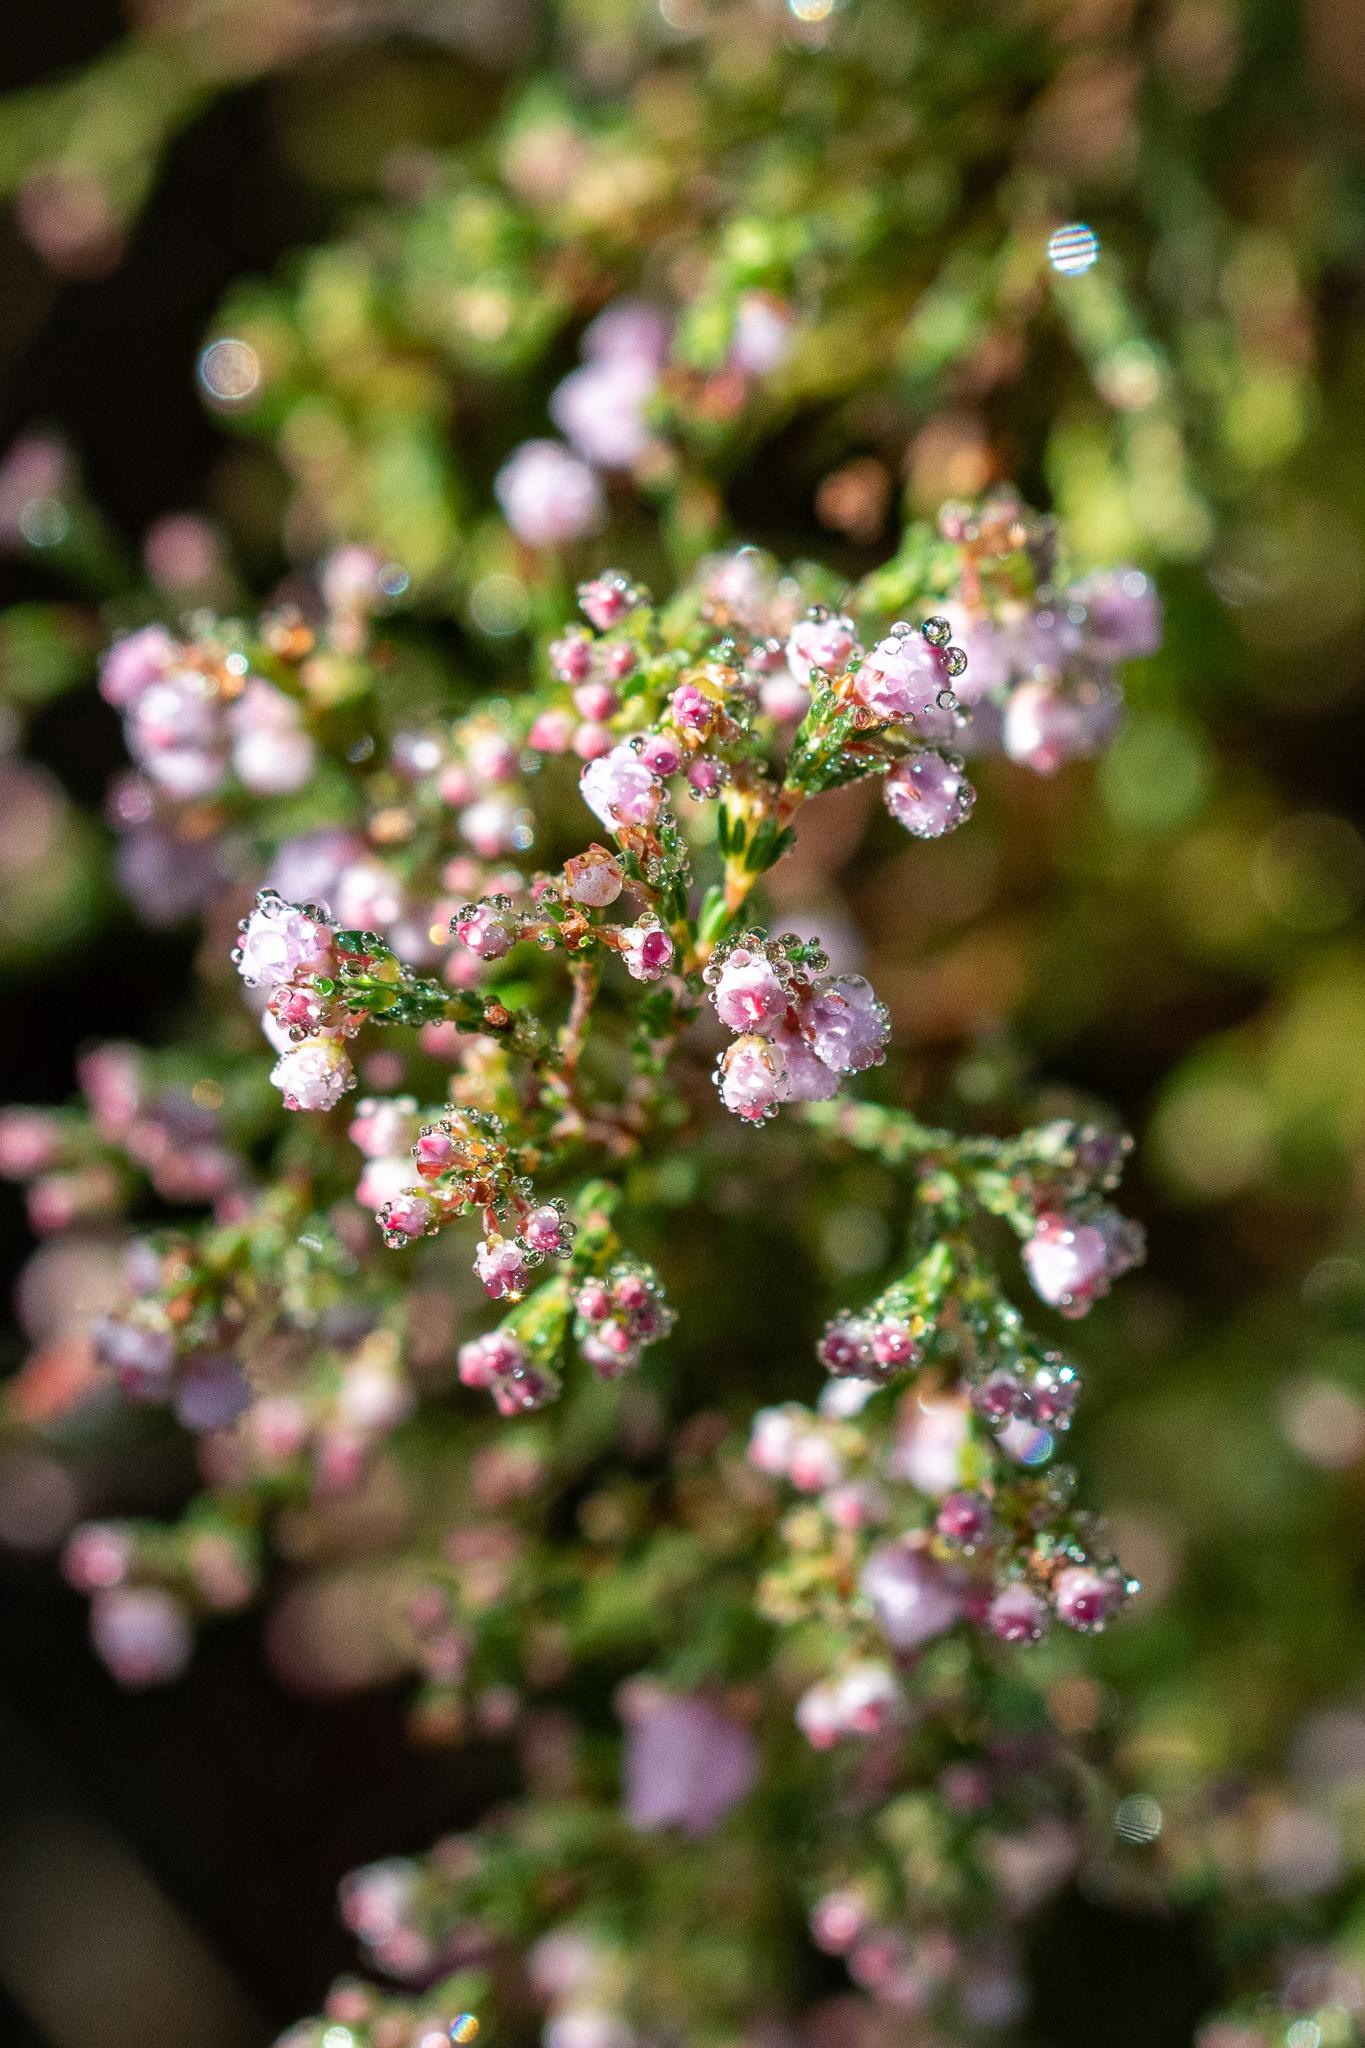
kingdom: Plantae
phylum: Tracheophyta
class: Magnoliopsida
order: Ericales
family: Ericaceae
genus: Erica
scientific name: Erica quadrangularis
